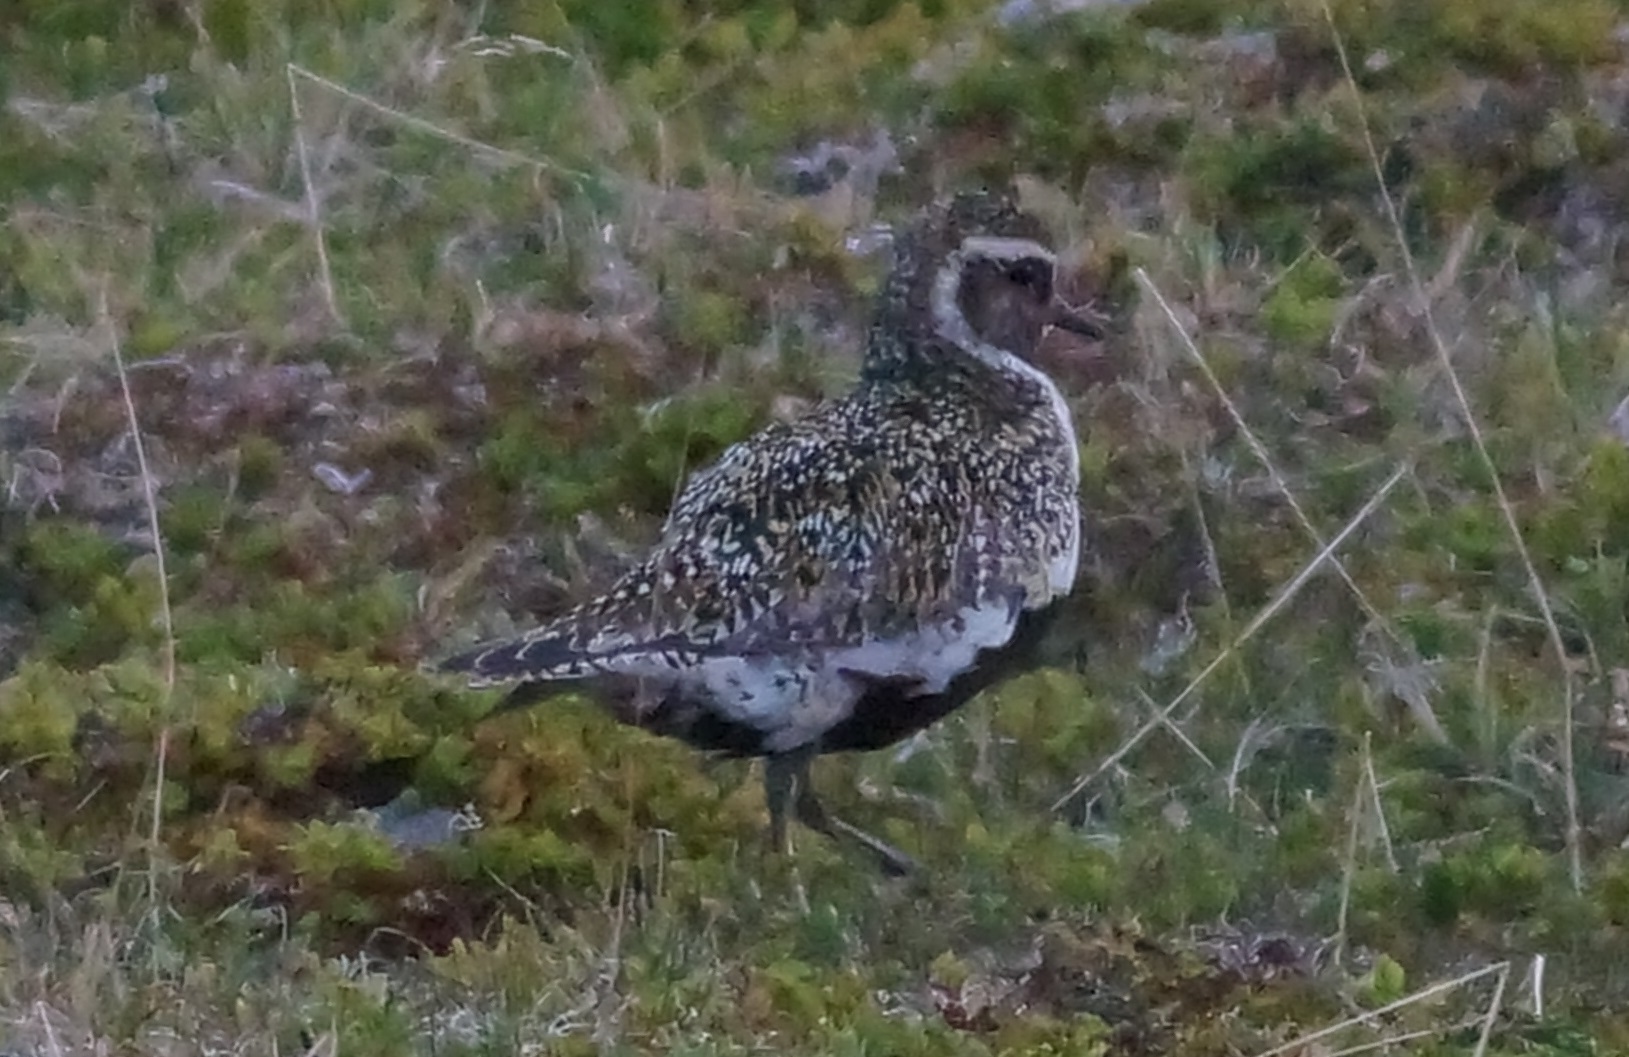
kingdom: Animalia
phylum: Chordata
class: Aves
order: Charadriiformes
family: Charadriidae
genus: Pluvialis
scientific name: Pluvialis apricaria
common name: European golden plover
